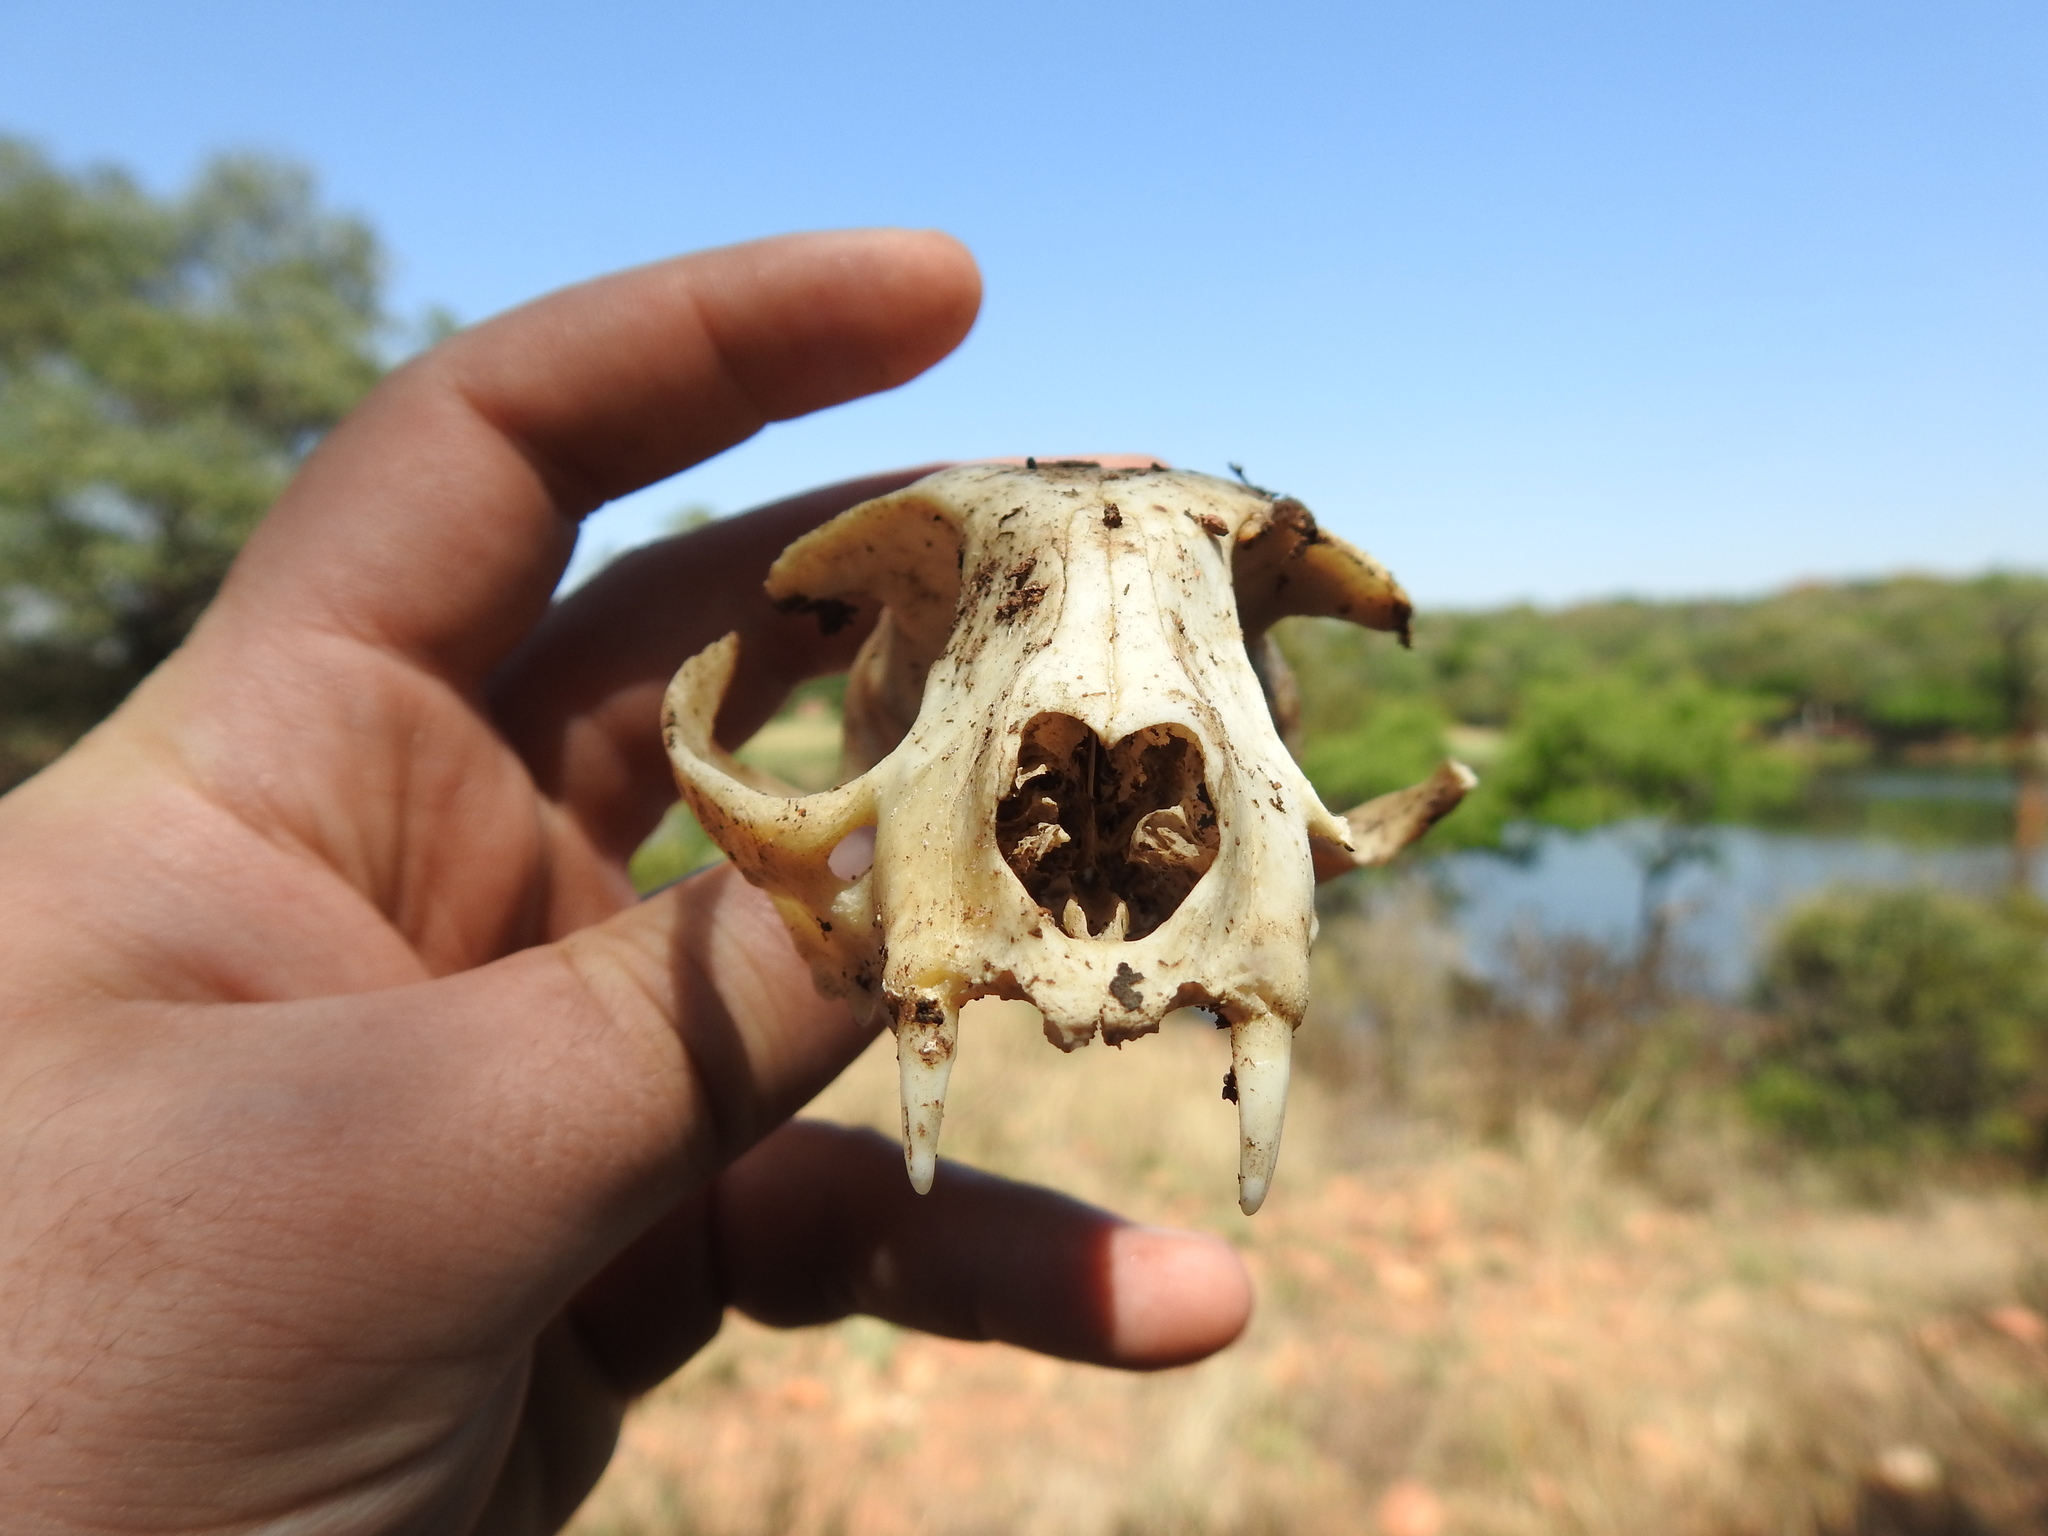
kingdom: Animalia
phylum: Chordata
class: Mammalia
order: Carnivora
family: Felidae
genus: Felis
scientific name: Felis catus
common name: Domestic cat
